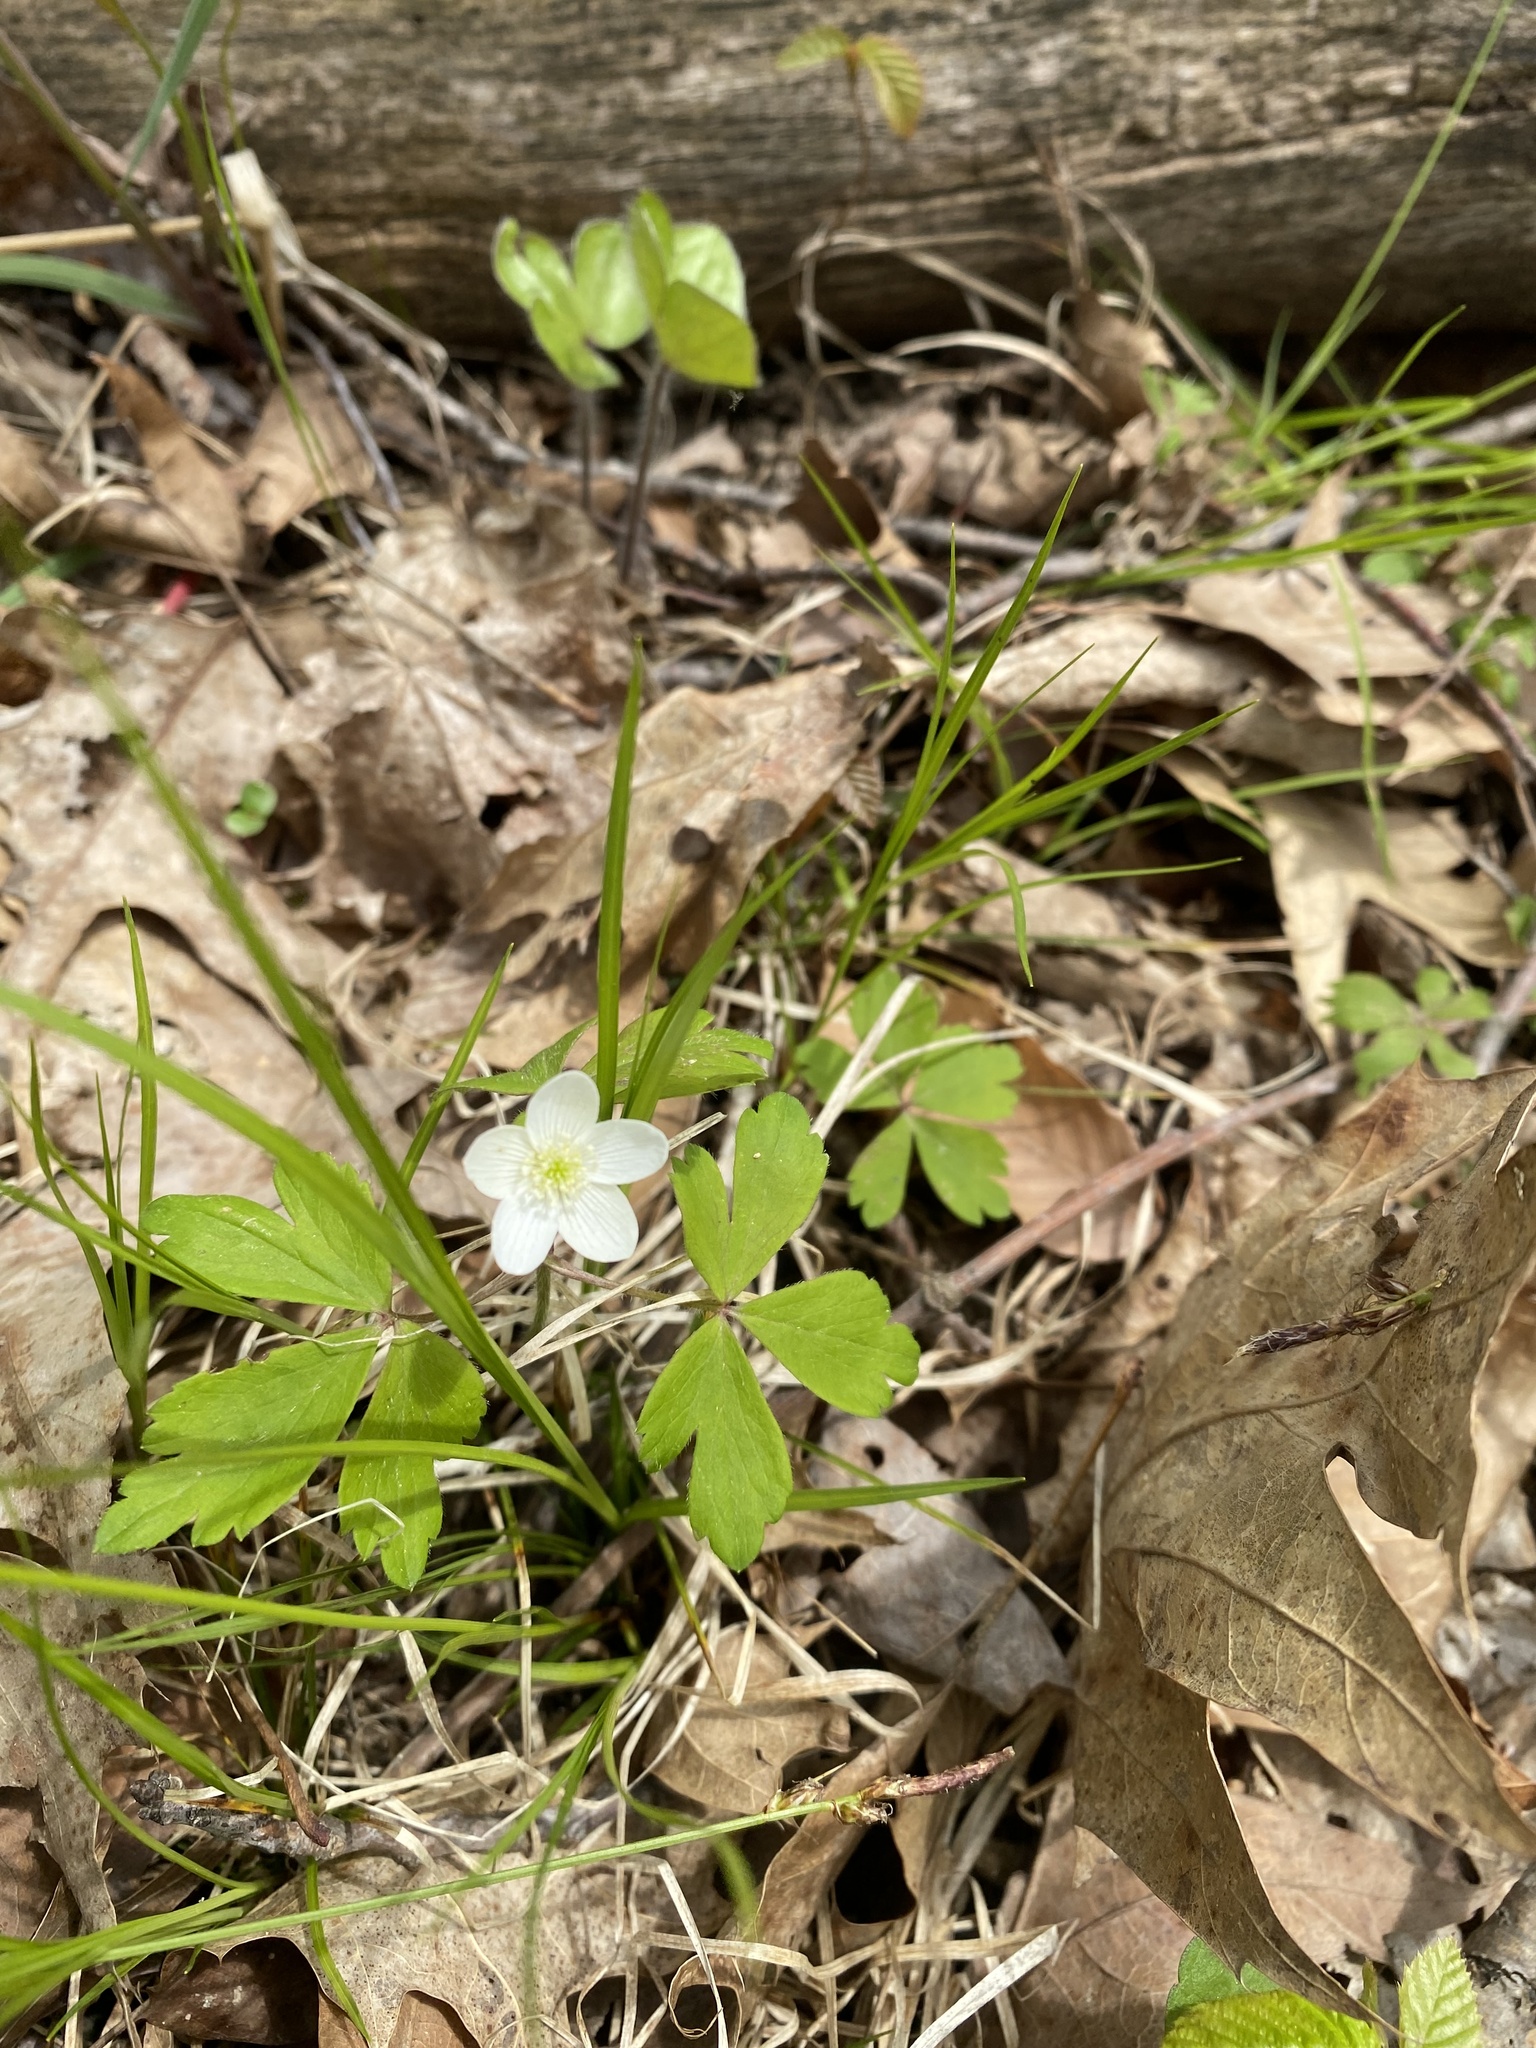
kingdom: Plantae
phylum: Tracheophyta
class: Magnoliopsida
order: Ranunculales
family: Ranunculaceae
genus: Anemone
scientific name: Anemone quinquefolia
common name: Wood anemone
